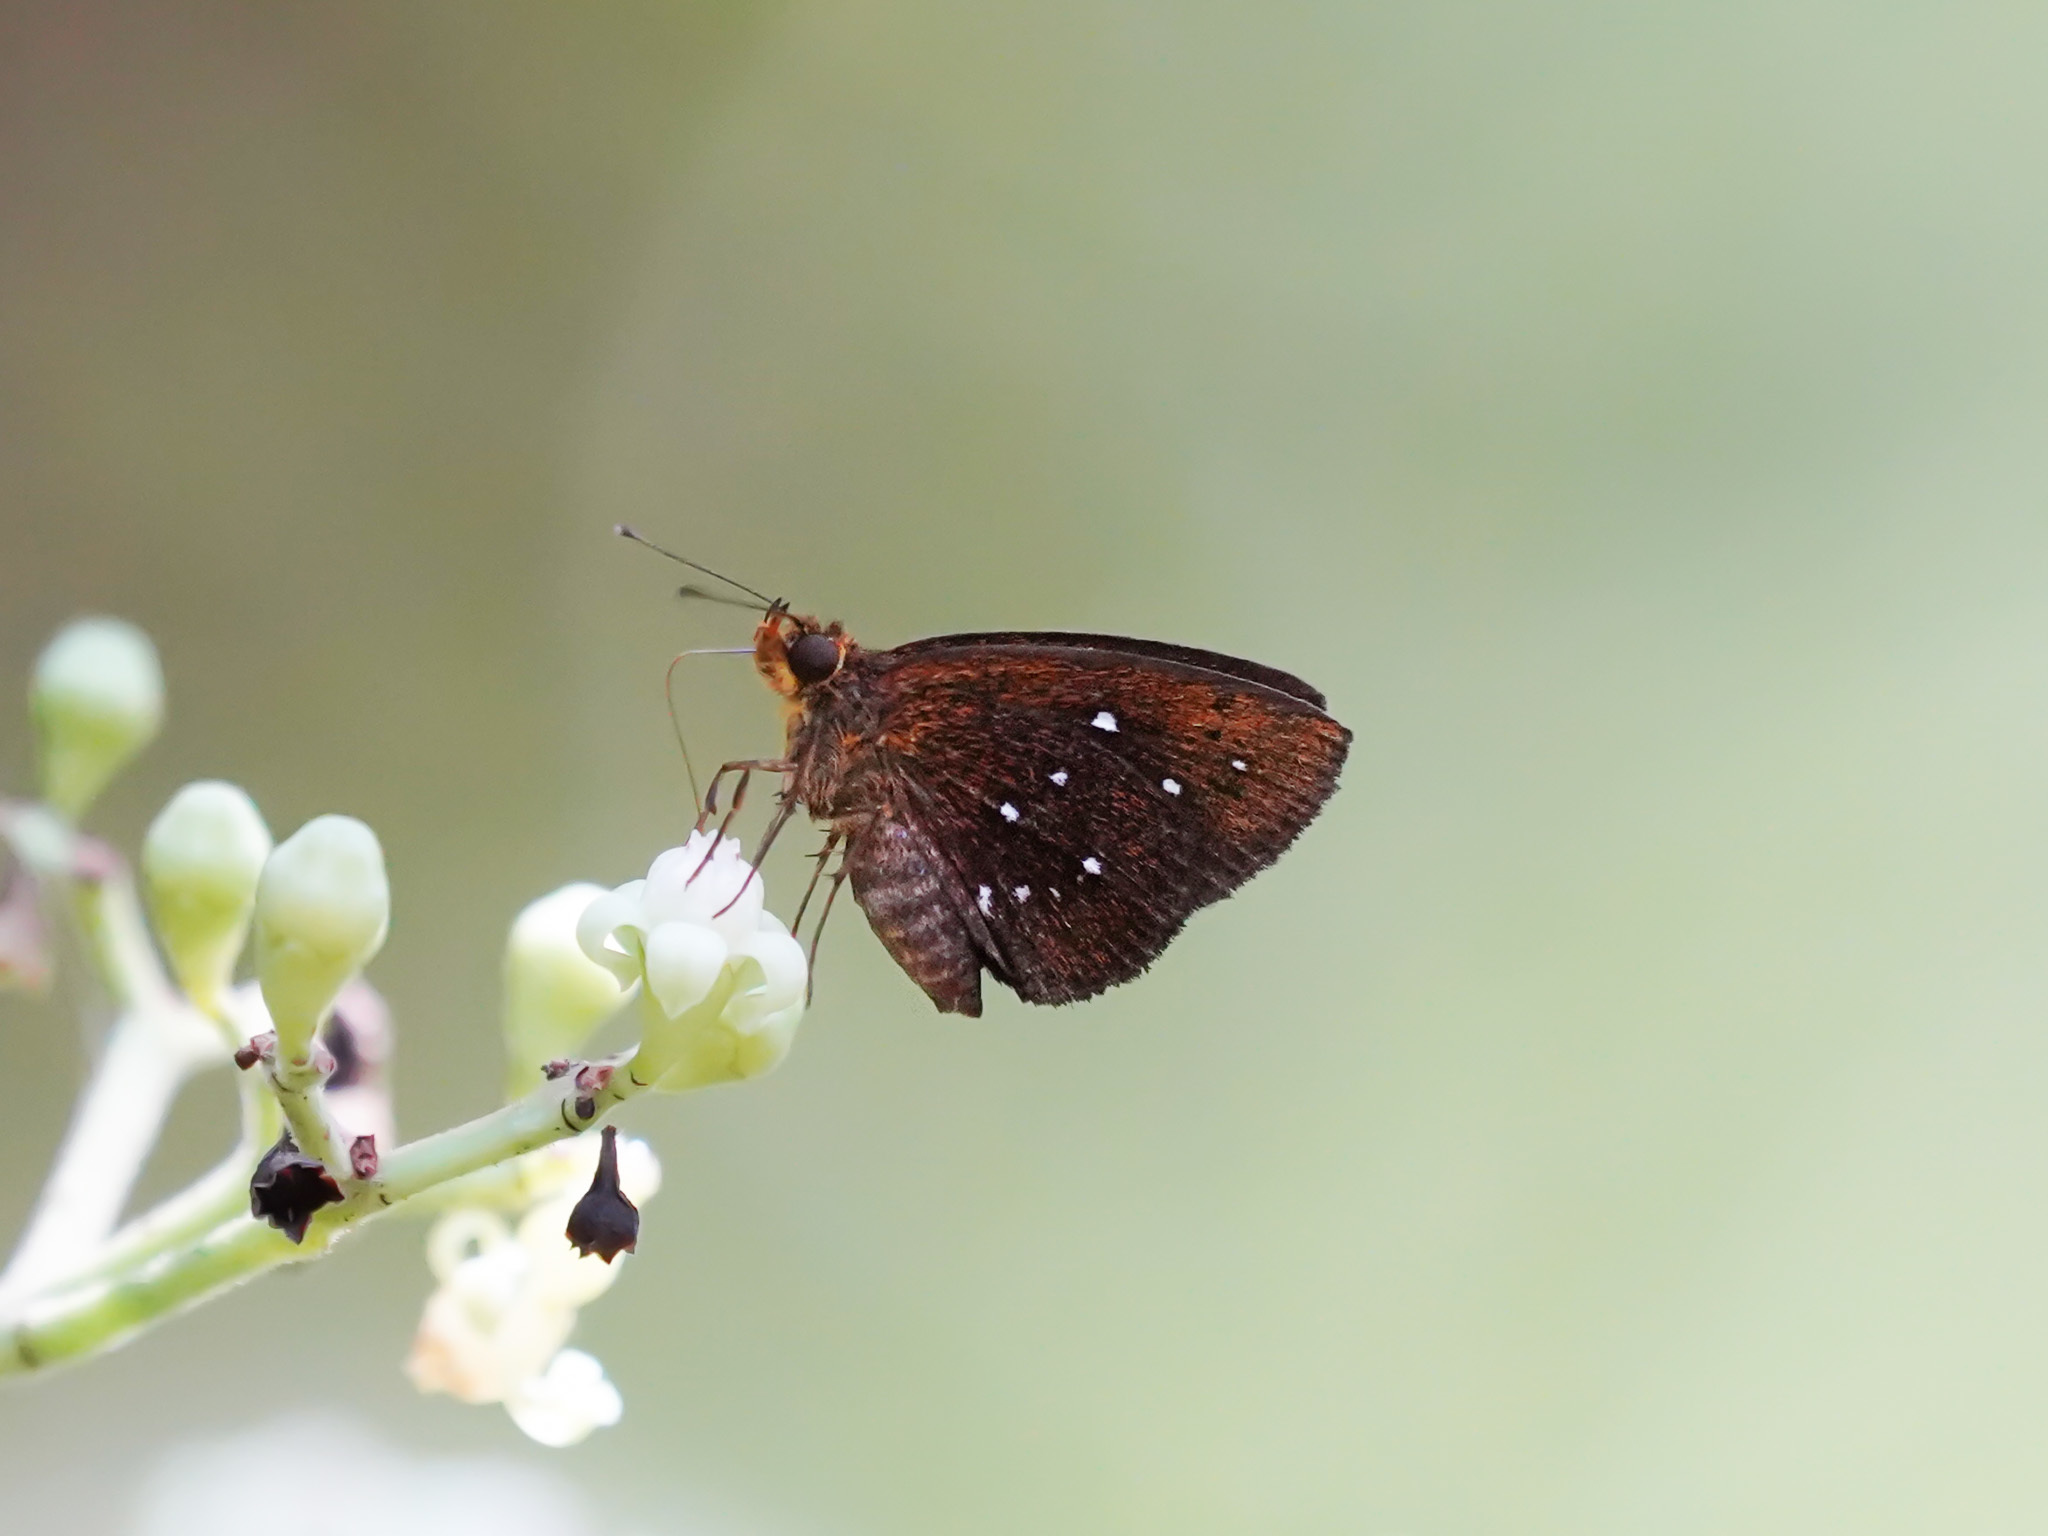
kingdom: Animalia
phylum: Arthropoda
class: Insecta
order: Lepidoptera
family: Hesperiidae
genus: Iambrix
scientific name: Iambrix stellifer
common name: Starry bob
